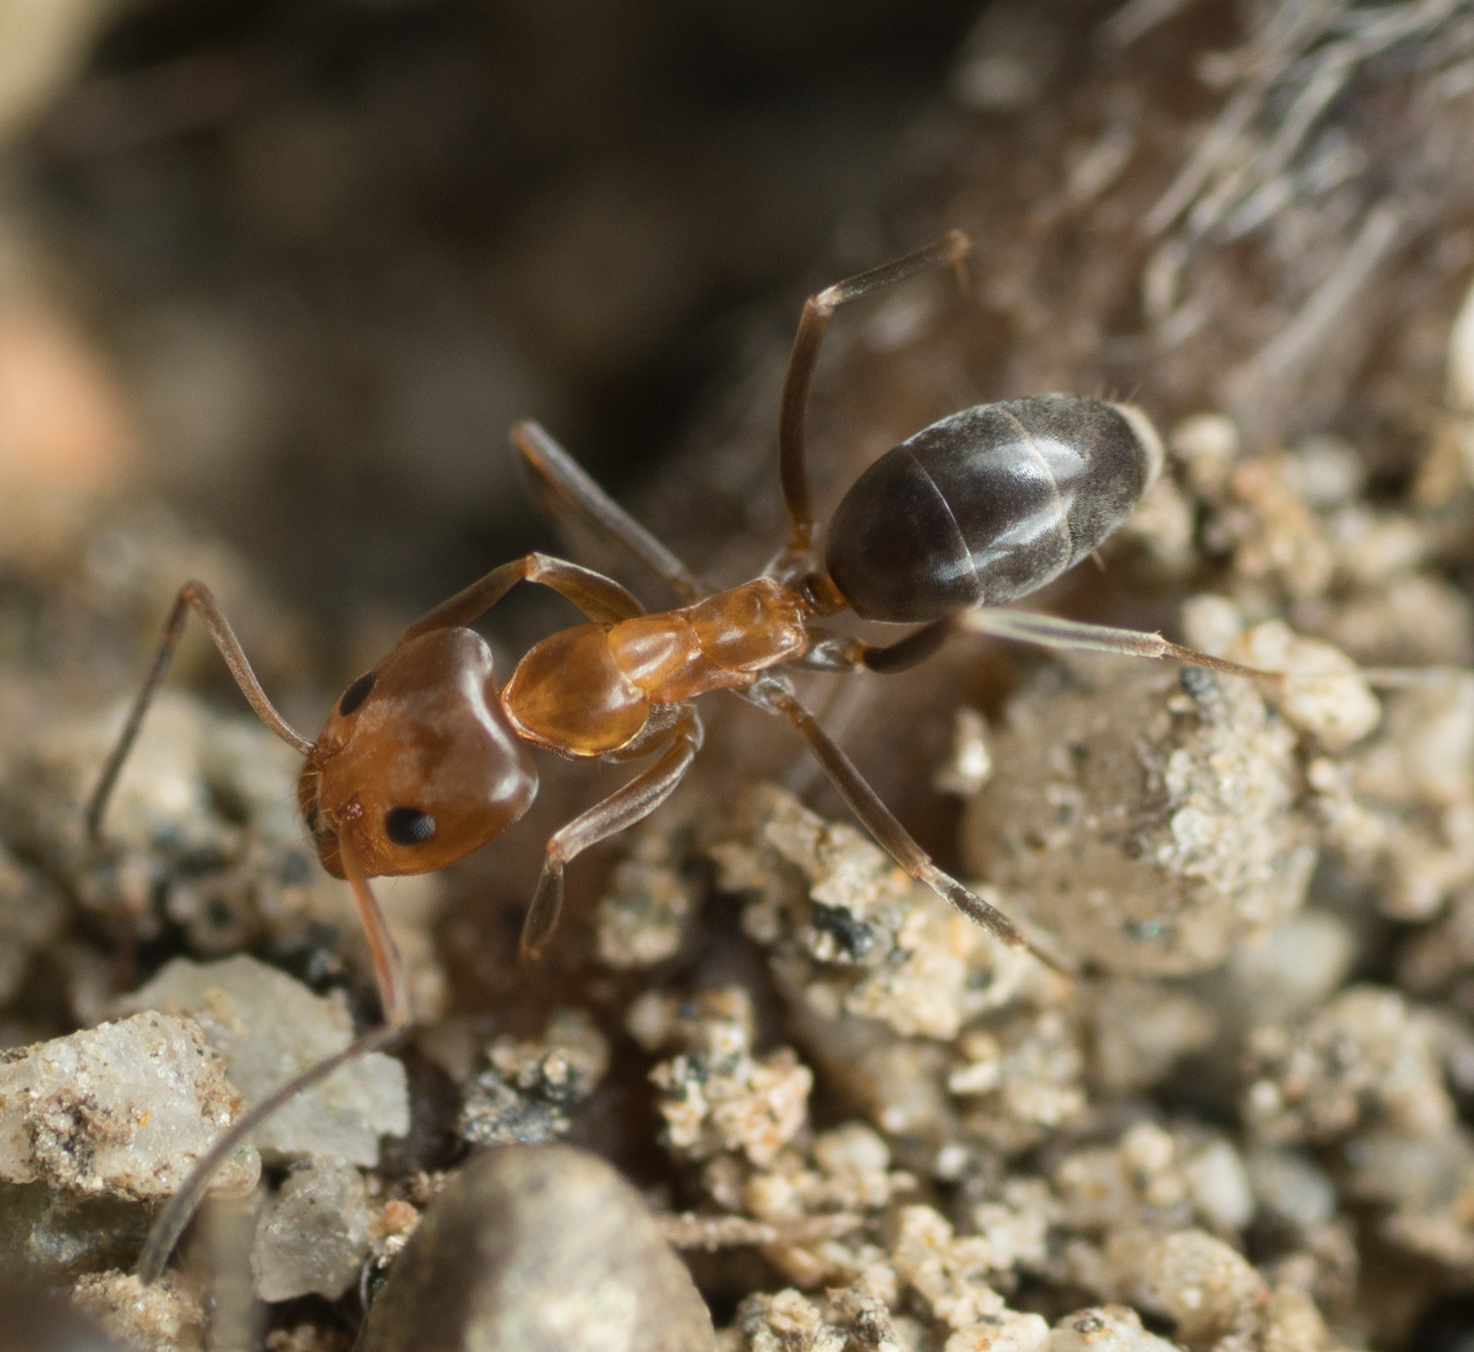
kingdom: Animalia
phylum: Arthropoda
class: Insecta
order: Hymenoptera
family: Formicidae
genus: Dorymyrmex
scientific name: Dorymyrmex bicolor
